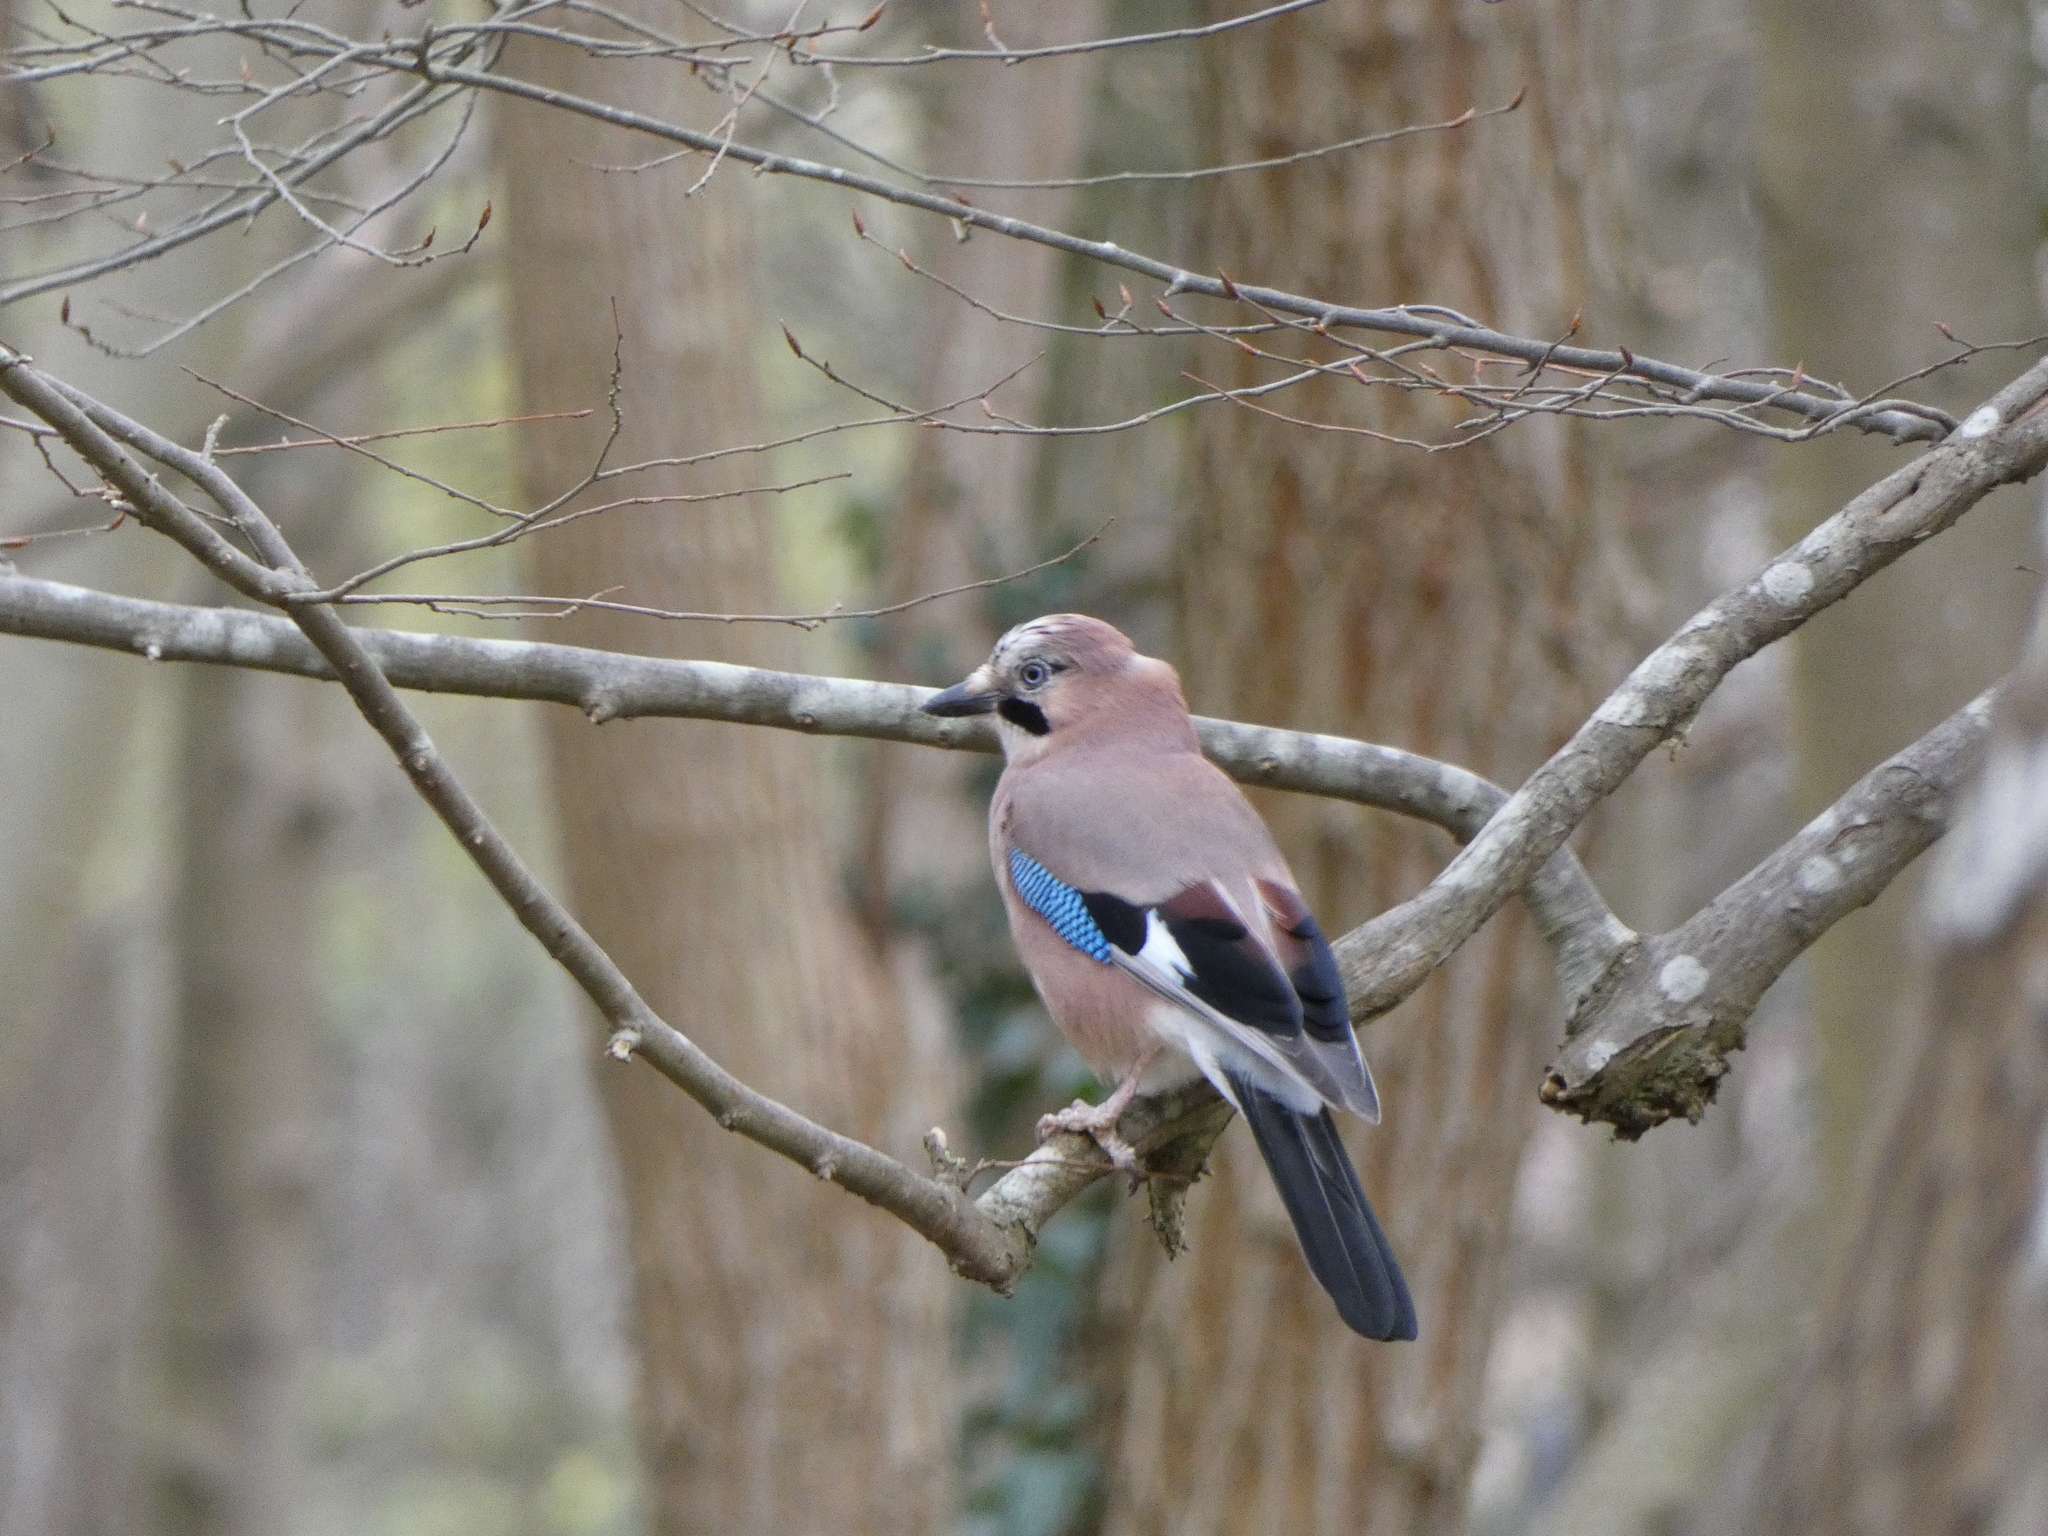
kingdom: Animalia
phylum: Chordata
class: Aves
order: Passeriformes
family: Corvidae
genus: Garrulus
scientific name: Garrulus glandarius
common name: Eurasian jay
